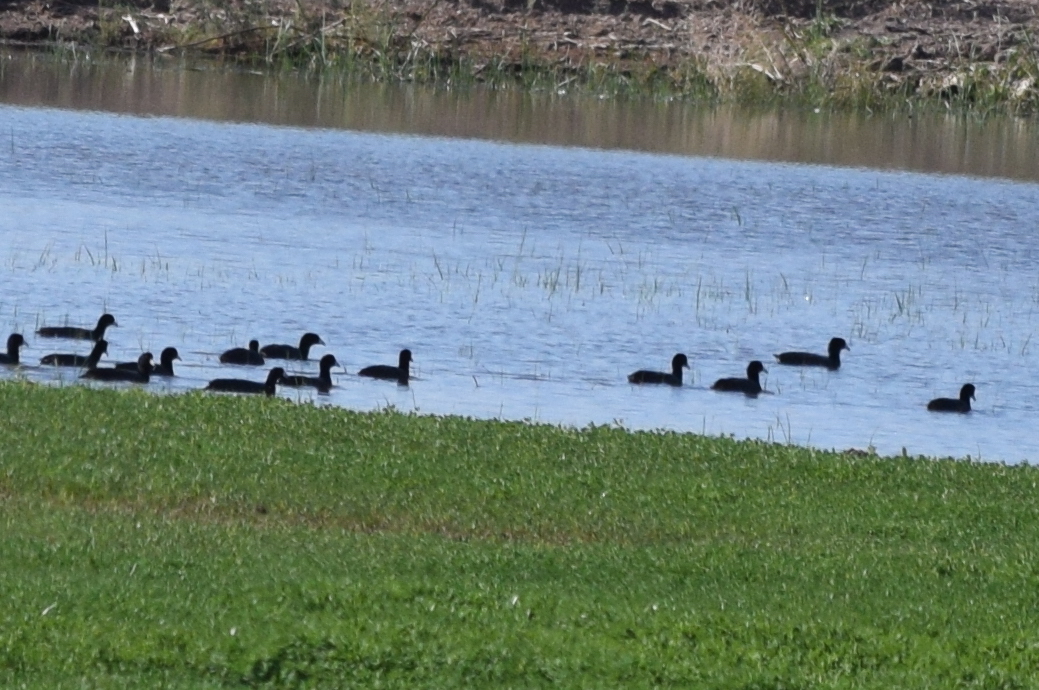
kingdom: Animalia
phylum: Chordata
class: Aves
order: Gruiformes
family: Rallidae
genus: Fulica
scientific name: Fulica americana
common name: American coot
